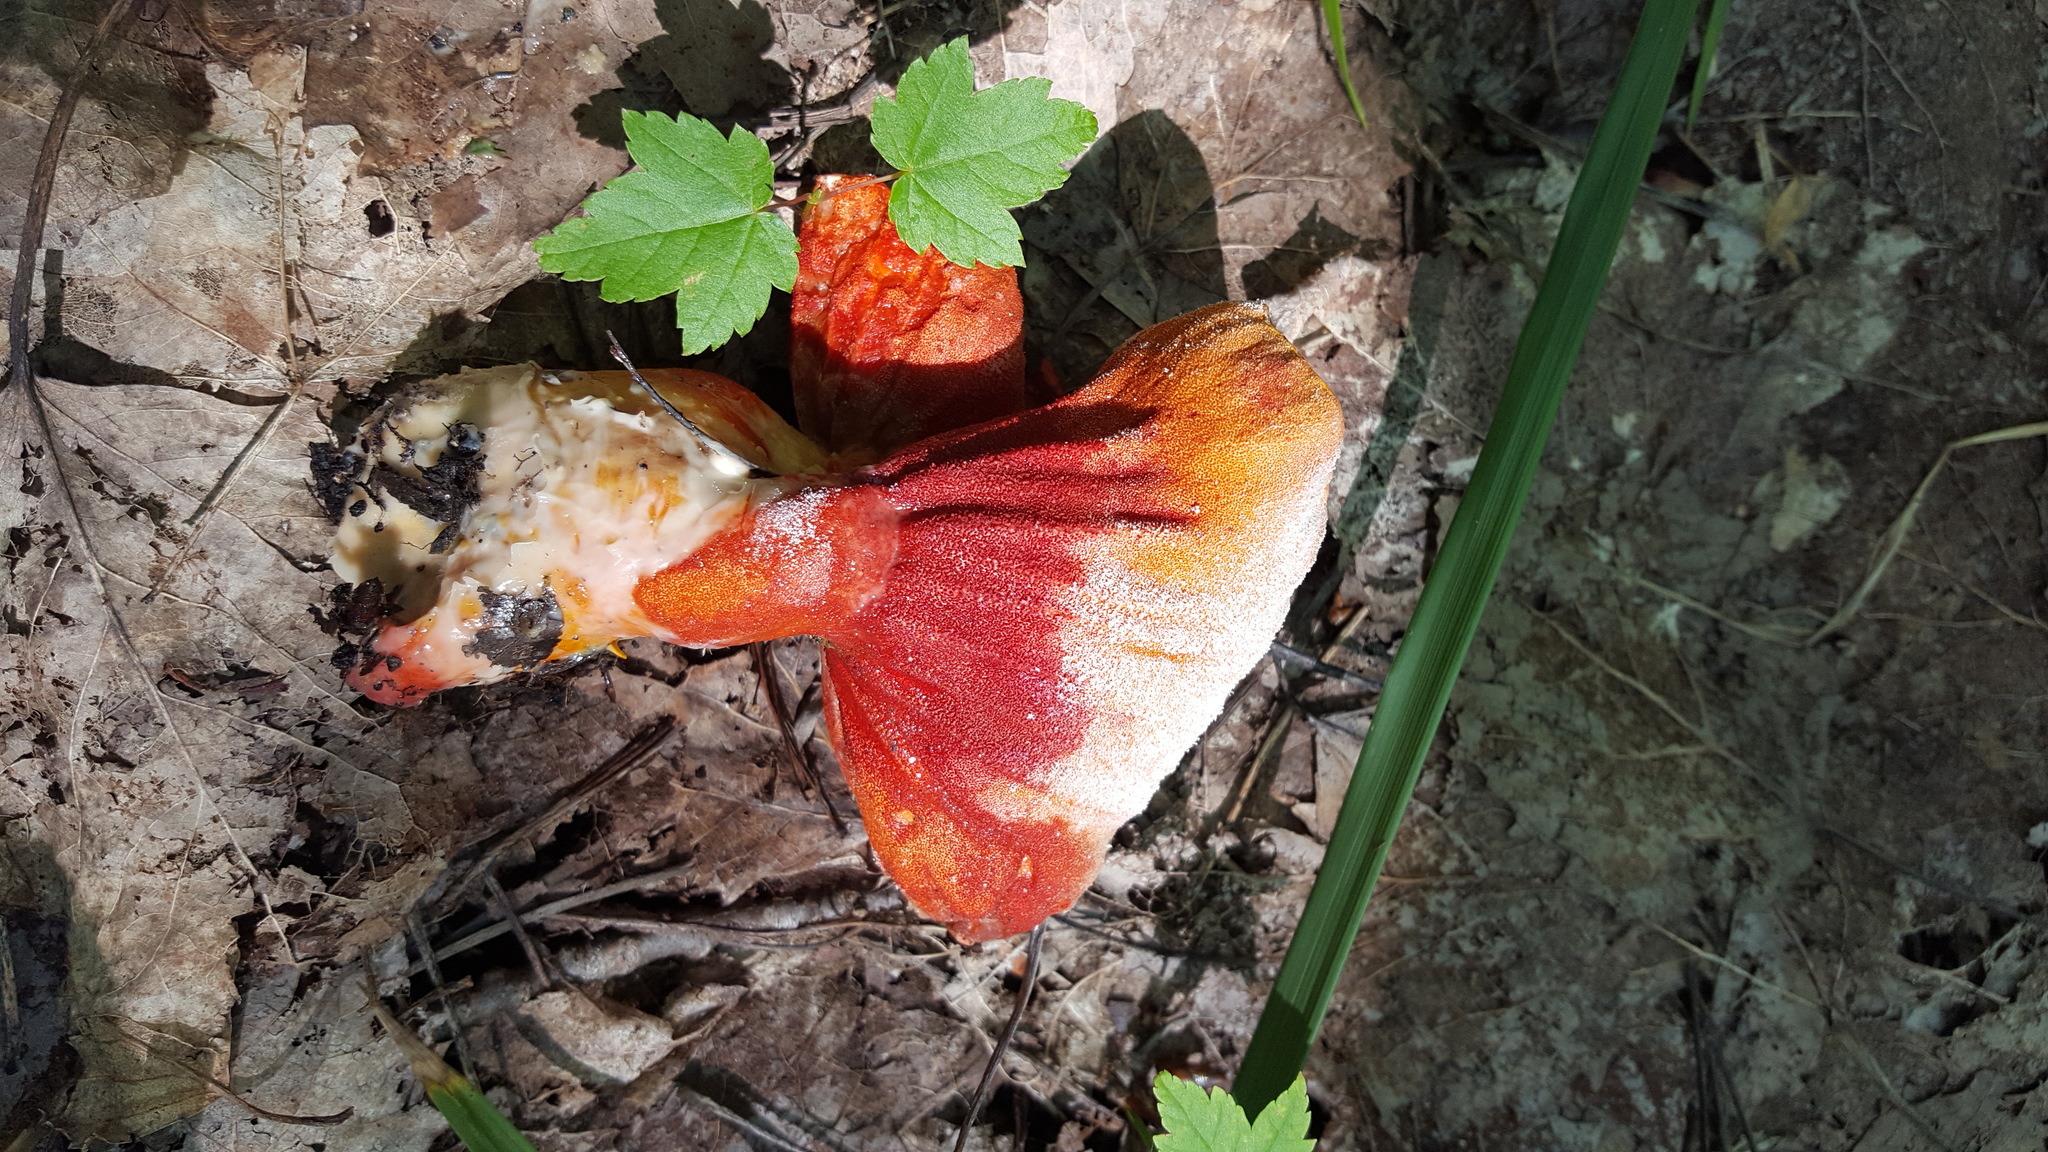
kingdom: Fungi
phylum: Ascomycota
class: Sordariomycetes
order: Hypocreales
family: Hypocreaceae
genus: Hypomyces
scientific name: Hypomyces lactifluorum
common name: Lobster mushroom
